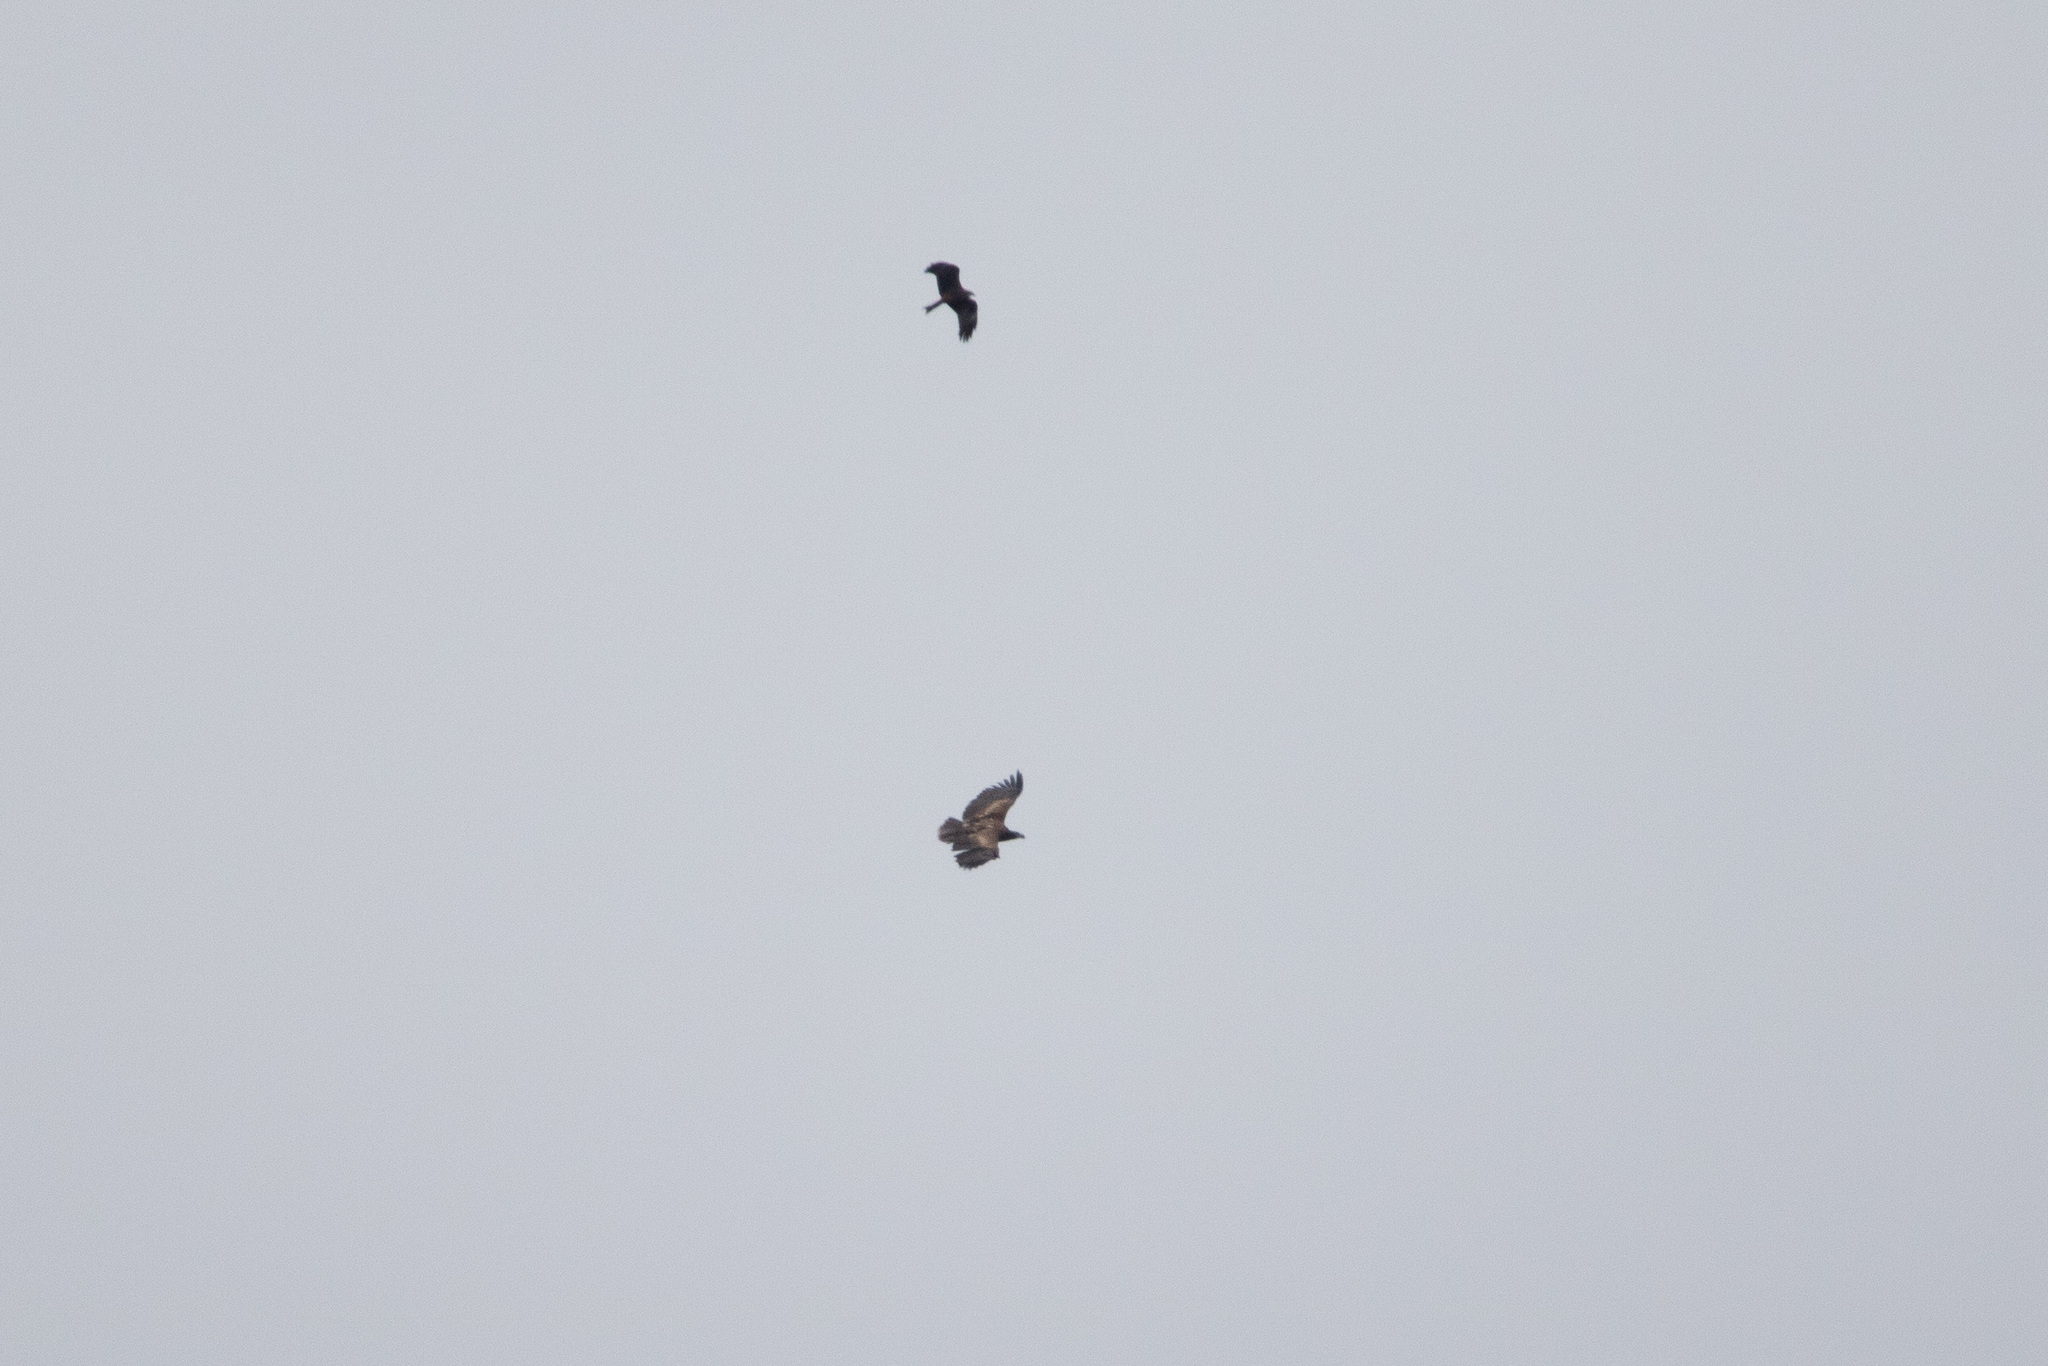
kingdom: Animalia
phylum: Chordata
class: Aves
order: Accipitriformes
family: Accipitridae
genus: Haliaeetus
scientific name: Haliaeetus albicilla
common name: White-tailed eagle
